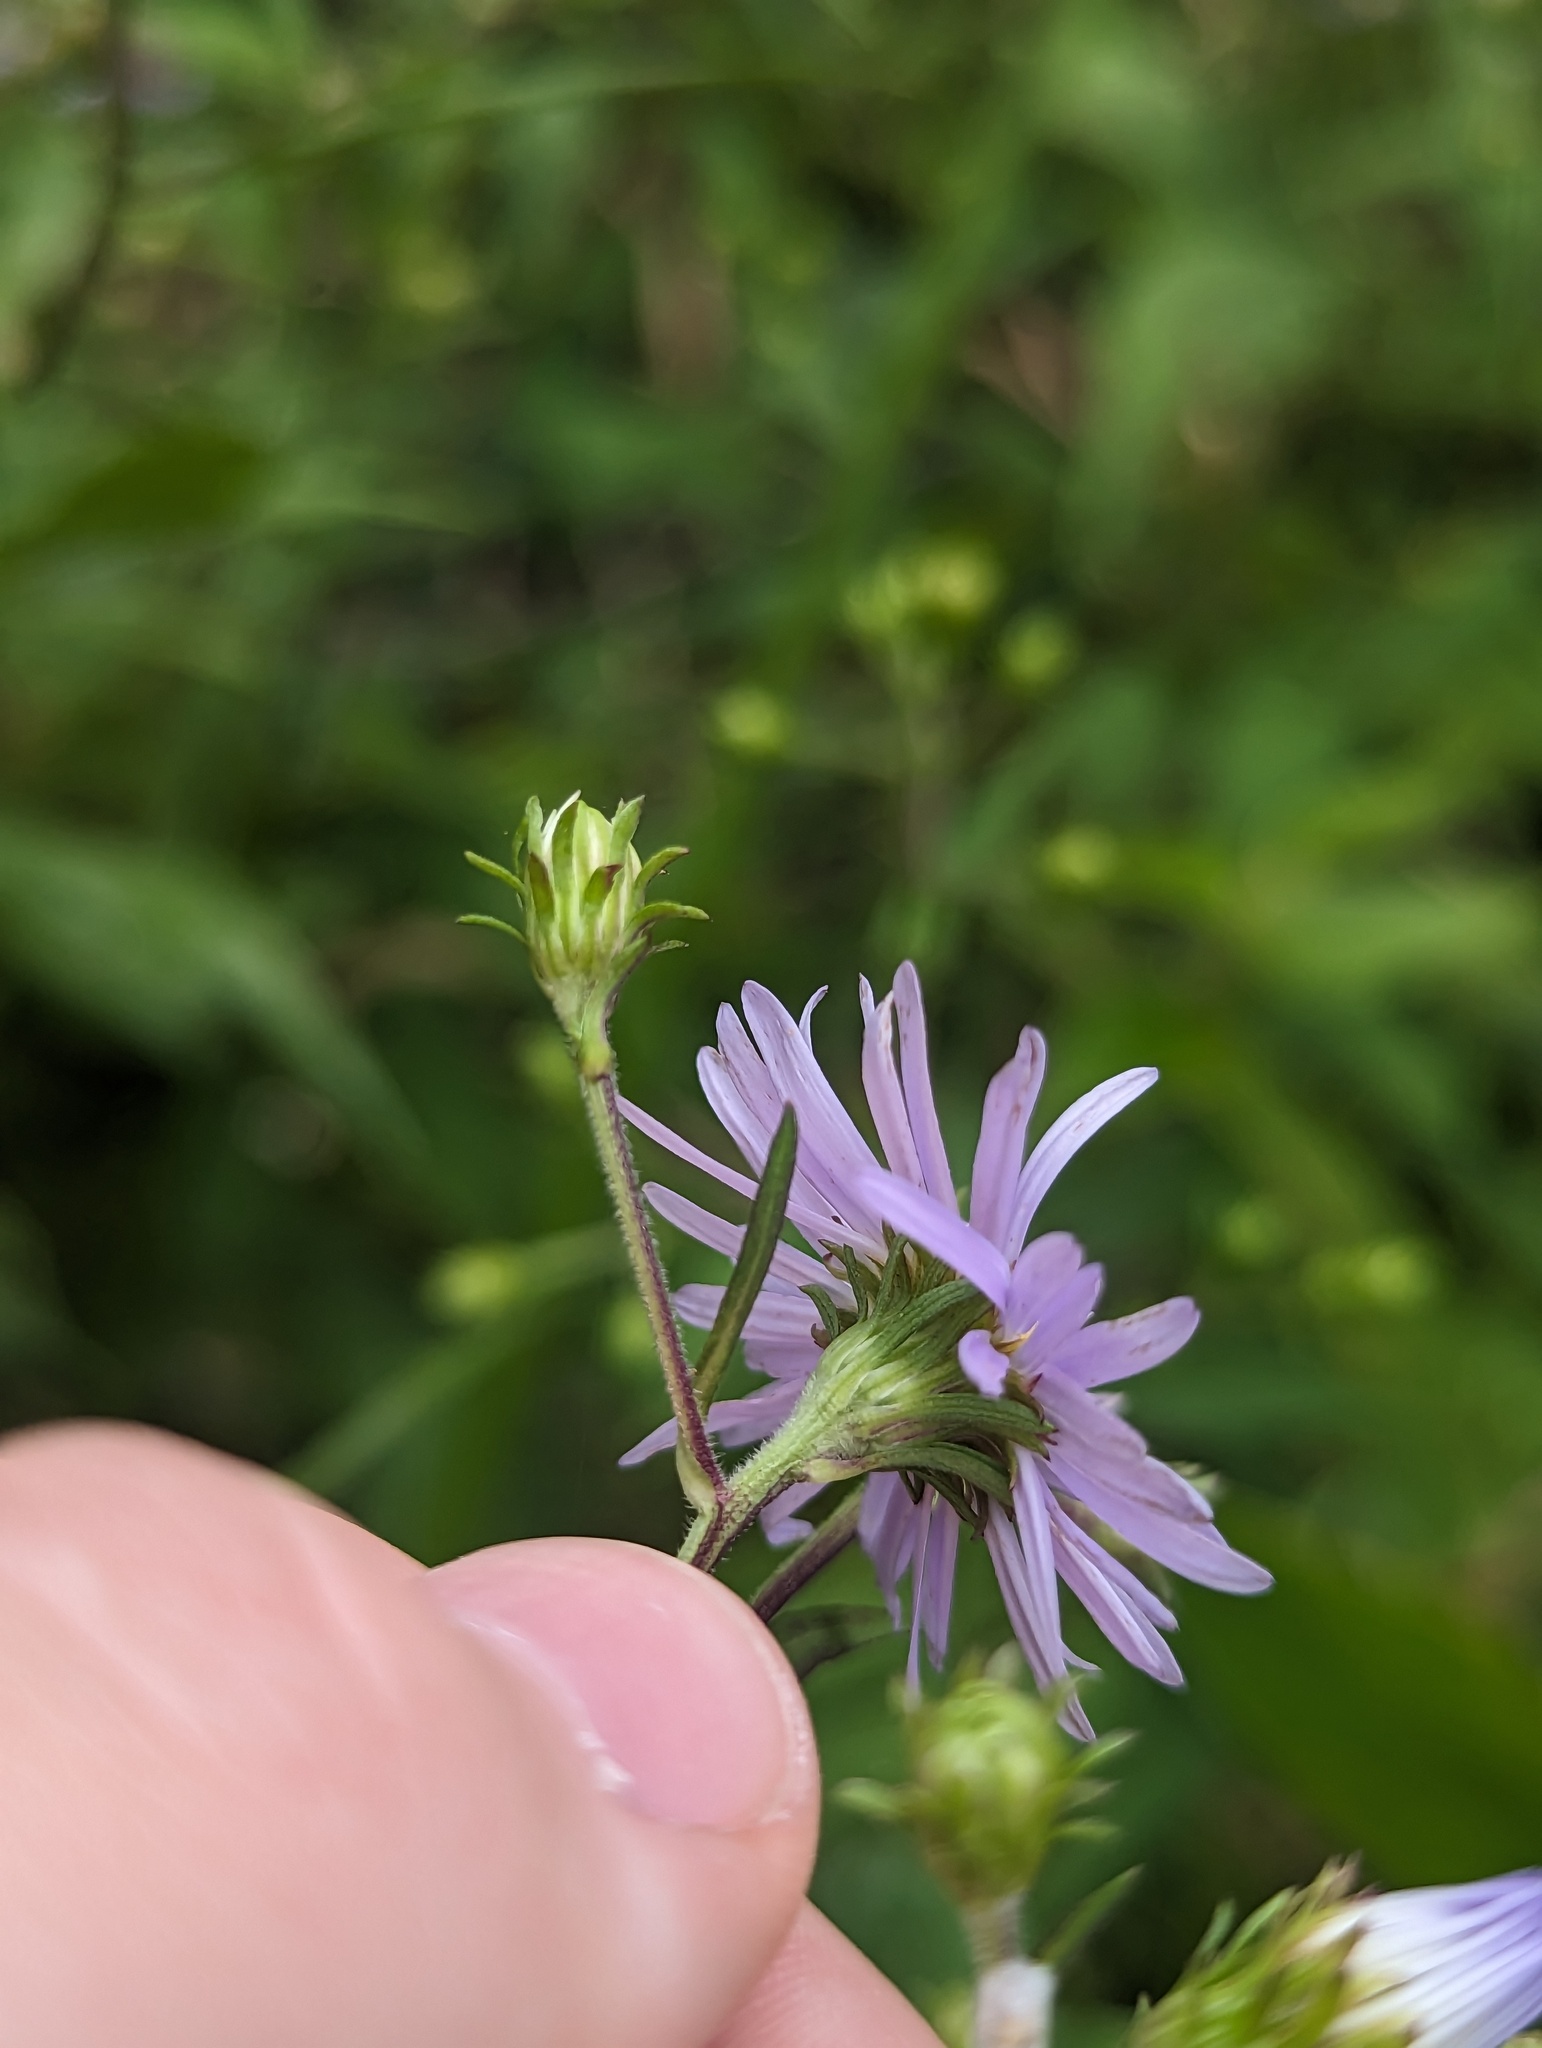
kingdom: Plantae
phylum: Tracheophyta
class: Magnoliopsida
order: Asterales
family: Asteraceae
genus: Symphyotrichum
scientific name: Symphyotrichum prenanthoides
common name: Crooked-stem aster
